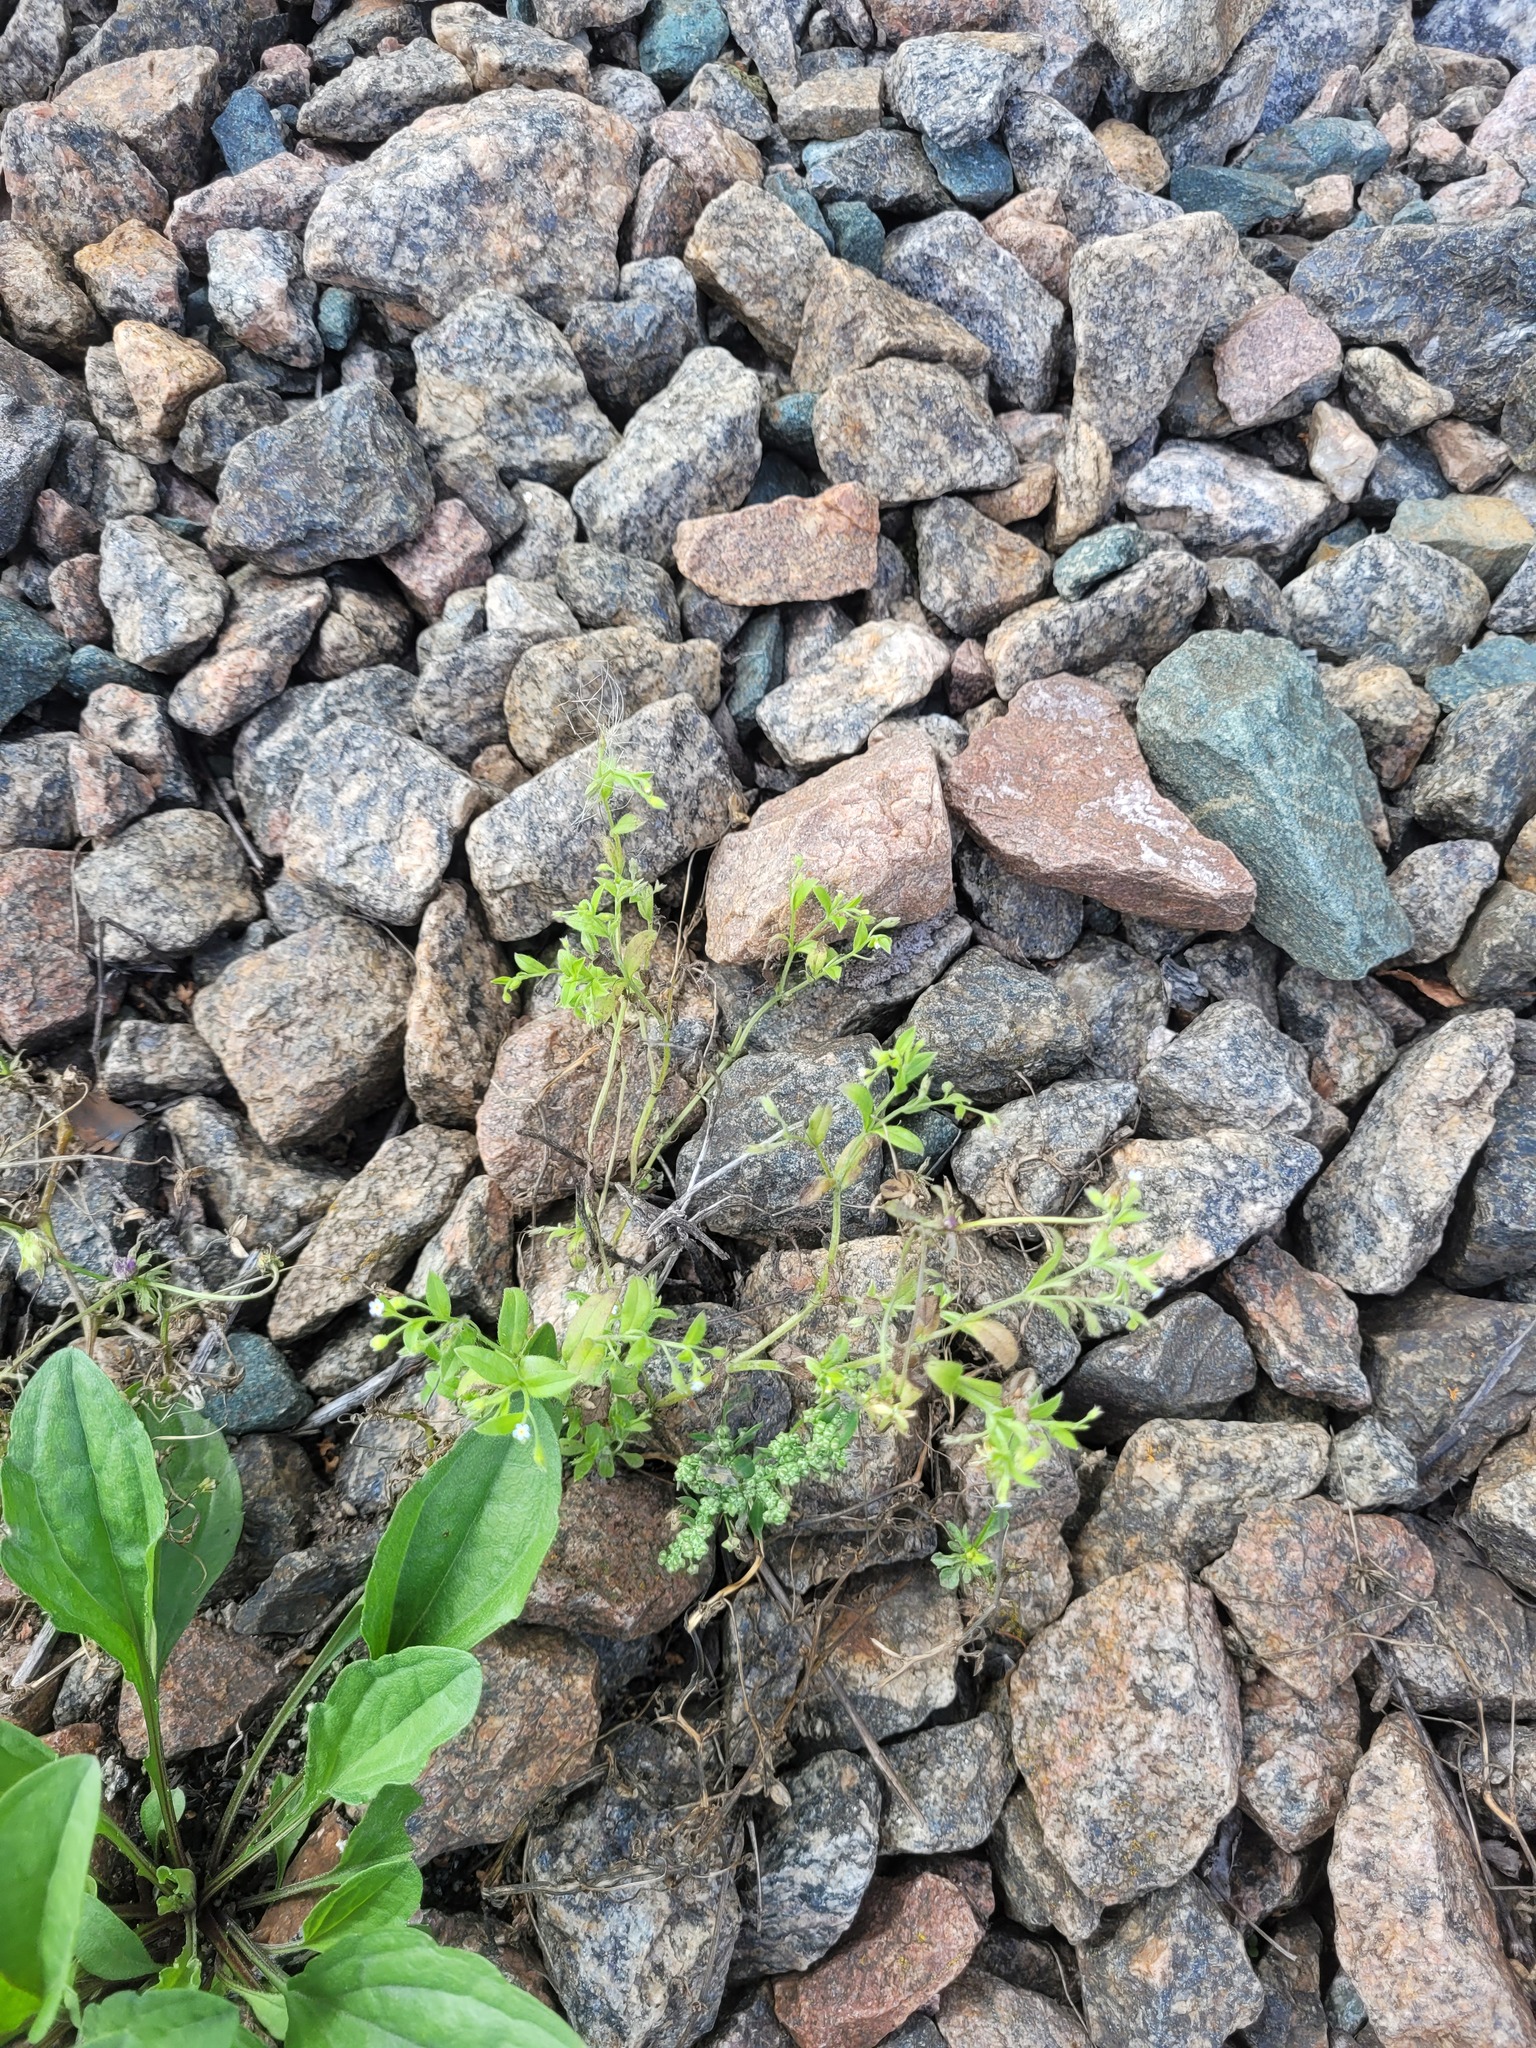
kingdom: Plantae
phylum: Tracheophyta
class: Magnoliopsida
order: Boraginales
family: Boraginaceae
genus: Myosotis
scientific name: Myosotis sparsiflora
